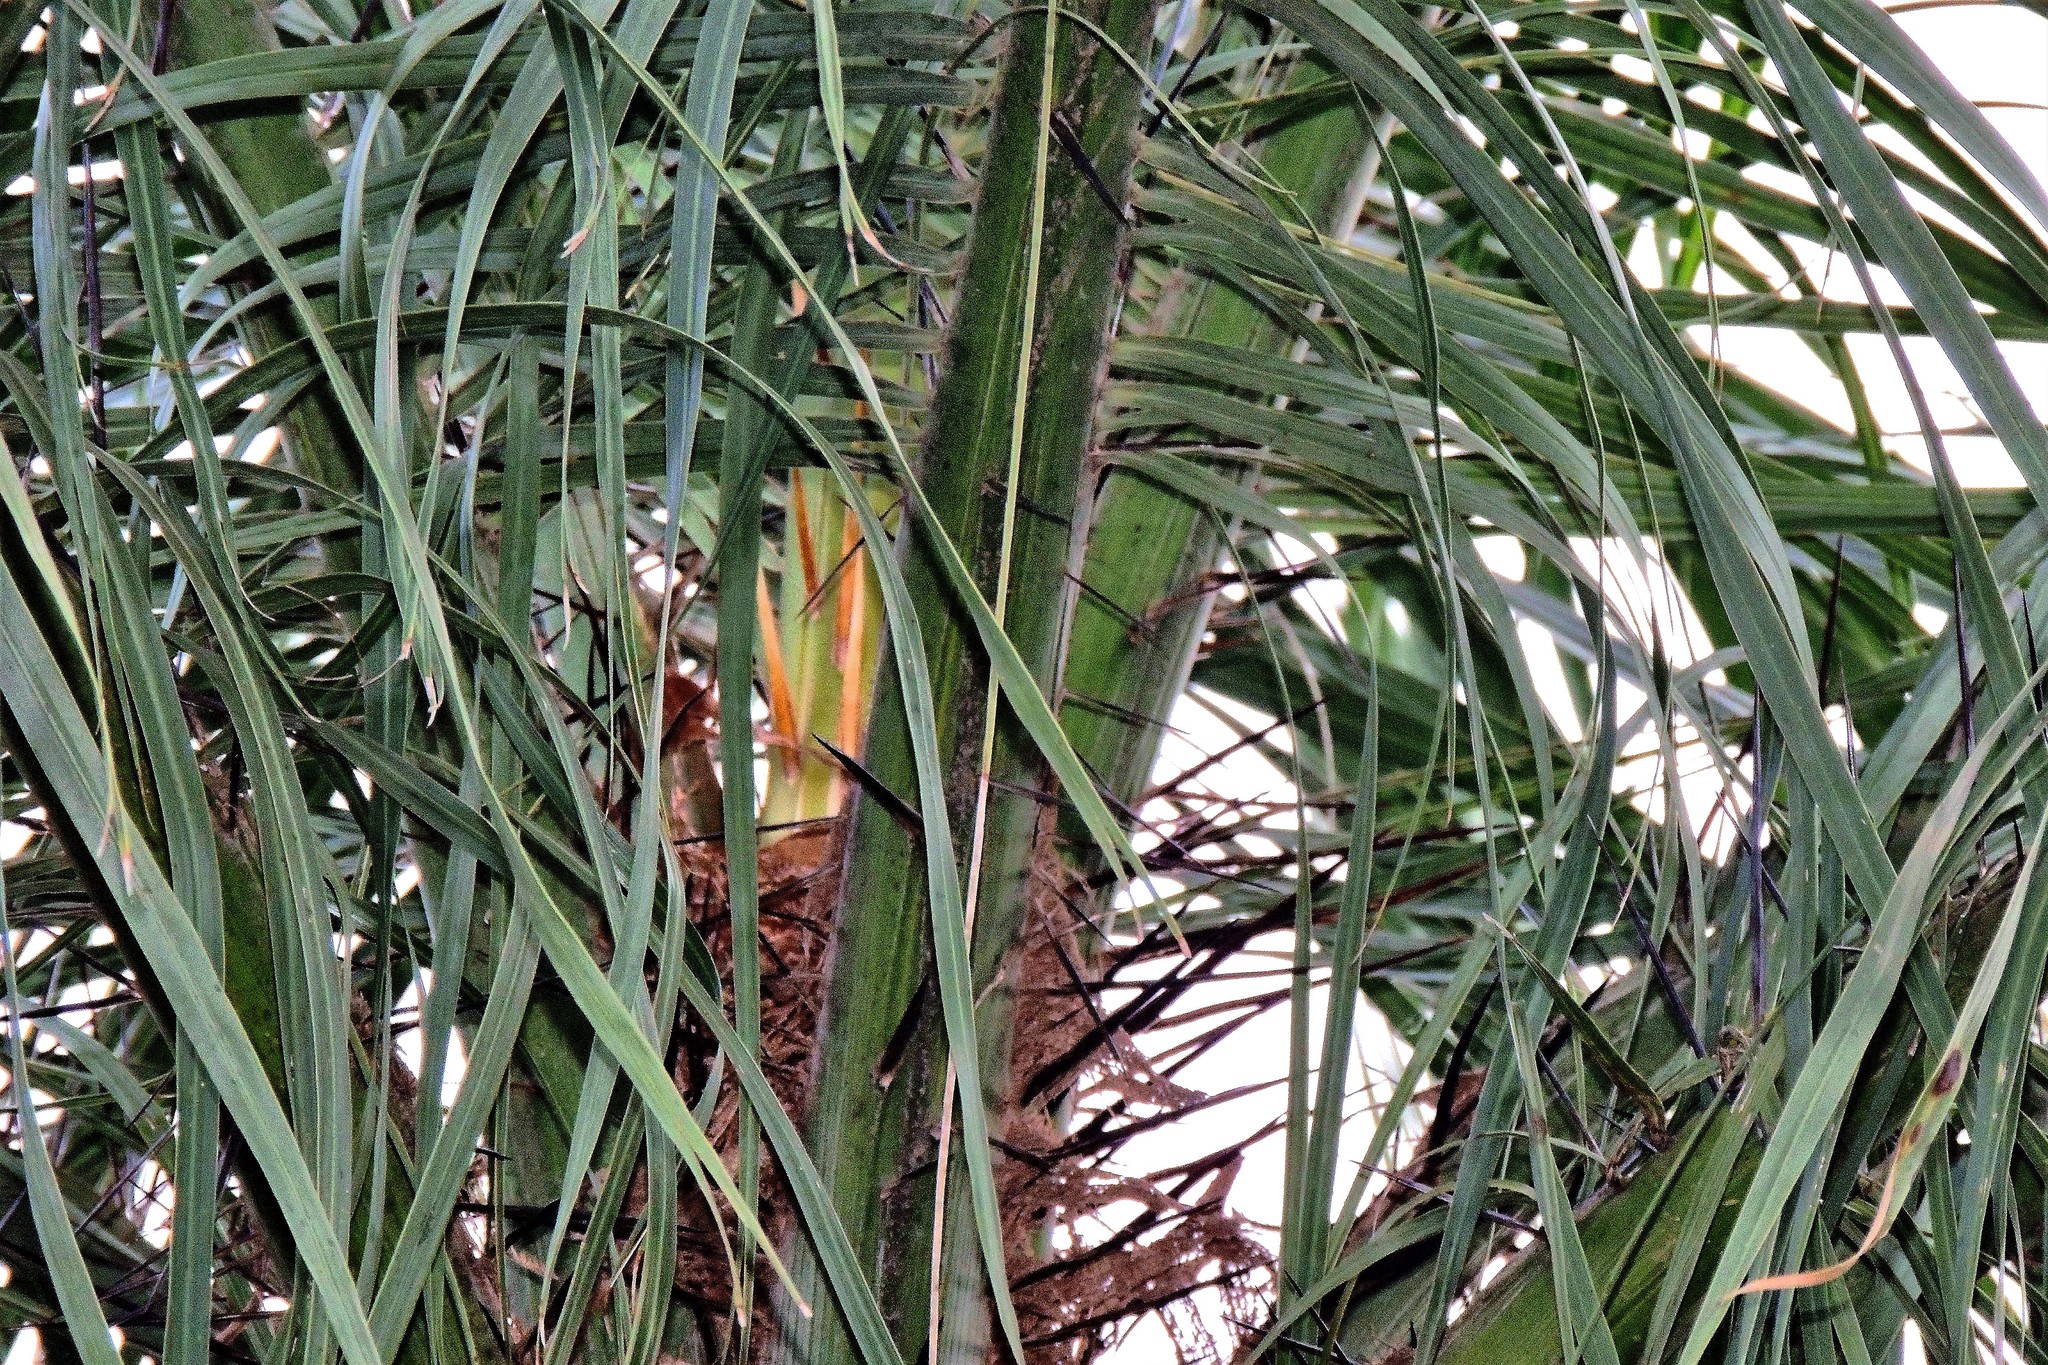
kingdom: Plantae
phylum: Tracheophyta
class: Liliopsida
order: Arecales
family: Arecaceae
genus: Acrocomia
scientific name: Acrocomia aculeata
